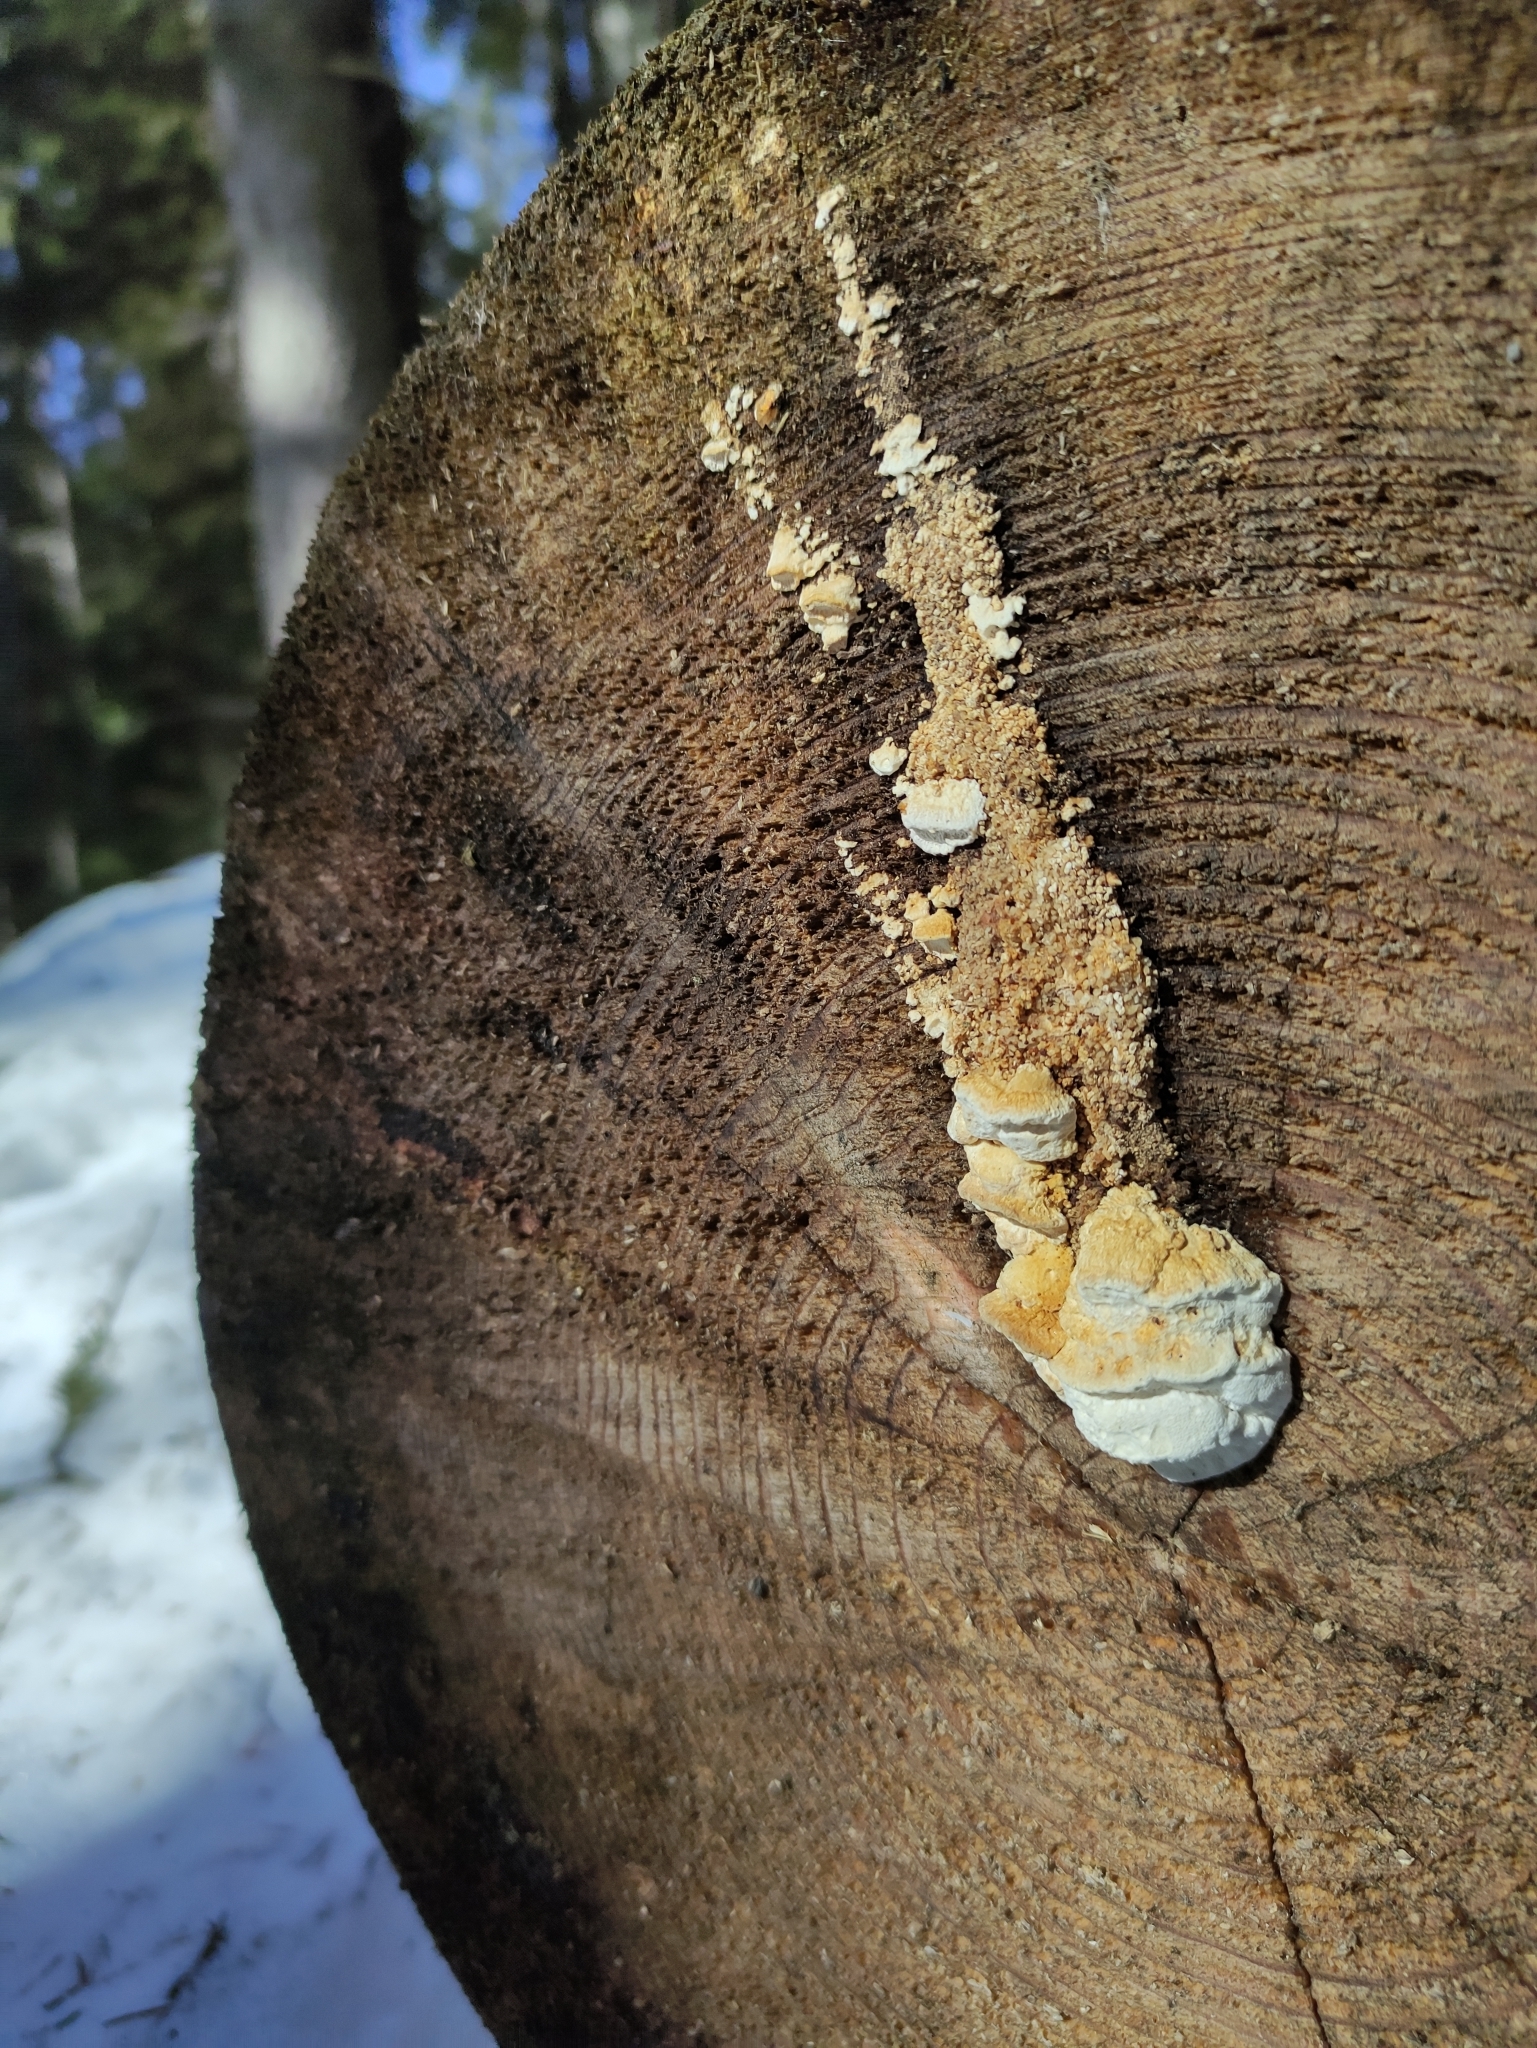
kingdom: Fungi
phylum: Basidiomycota
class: Agaricomycetes
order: Polyporales
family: Fomitopsidaceae
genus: Neoantrodia
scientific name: Neoantrodia serialis
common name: Serried porecrust
